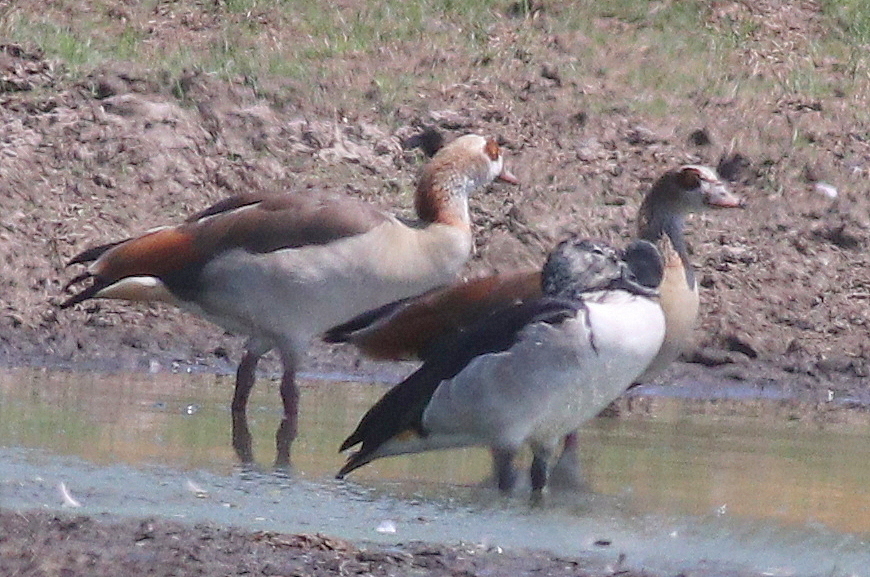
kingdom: Animalia
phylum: Chordata
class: Aves
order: Anseriformes
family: Anatidae
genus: Sarkidiornis
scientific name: Sarkidiornis melanotos
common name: Comb duck
